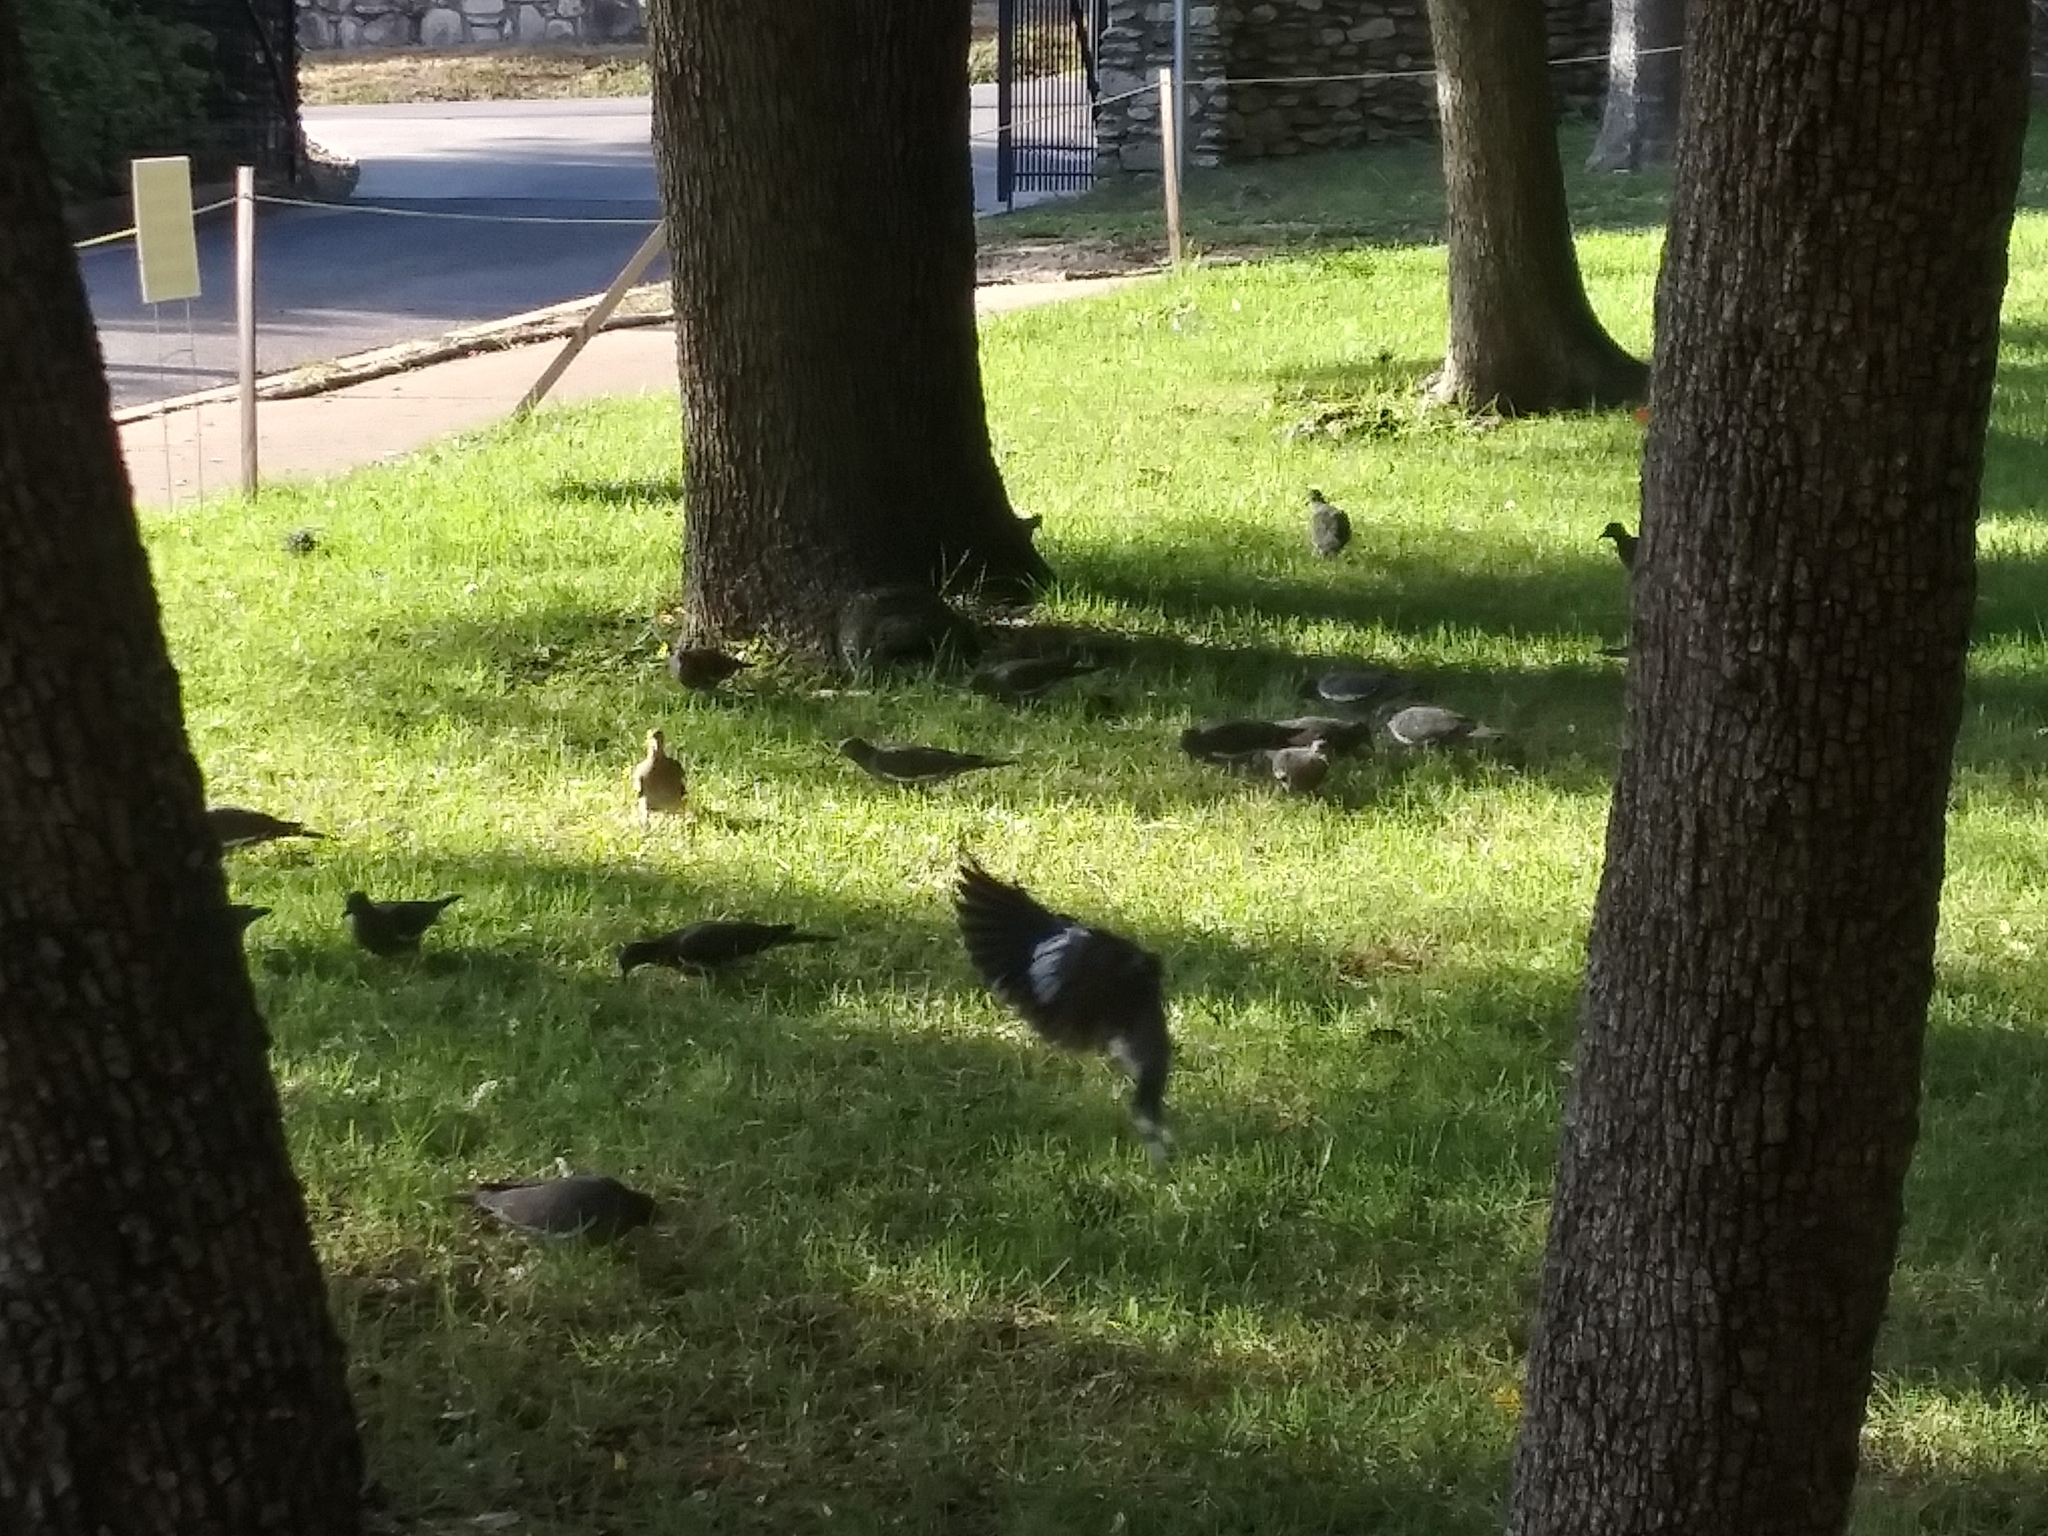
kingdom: Animalia
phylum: Chordata
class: Aves
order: Columbiformes
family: Columbidae
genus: Zenaida
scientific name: Zenaida asiatica
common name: White-winged dove
